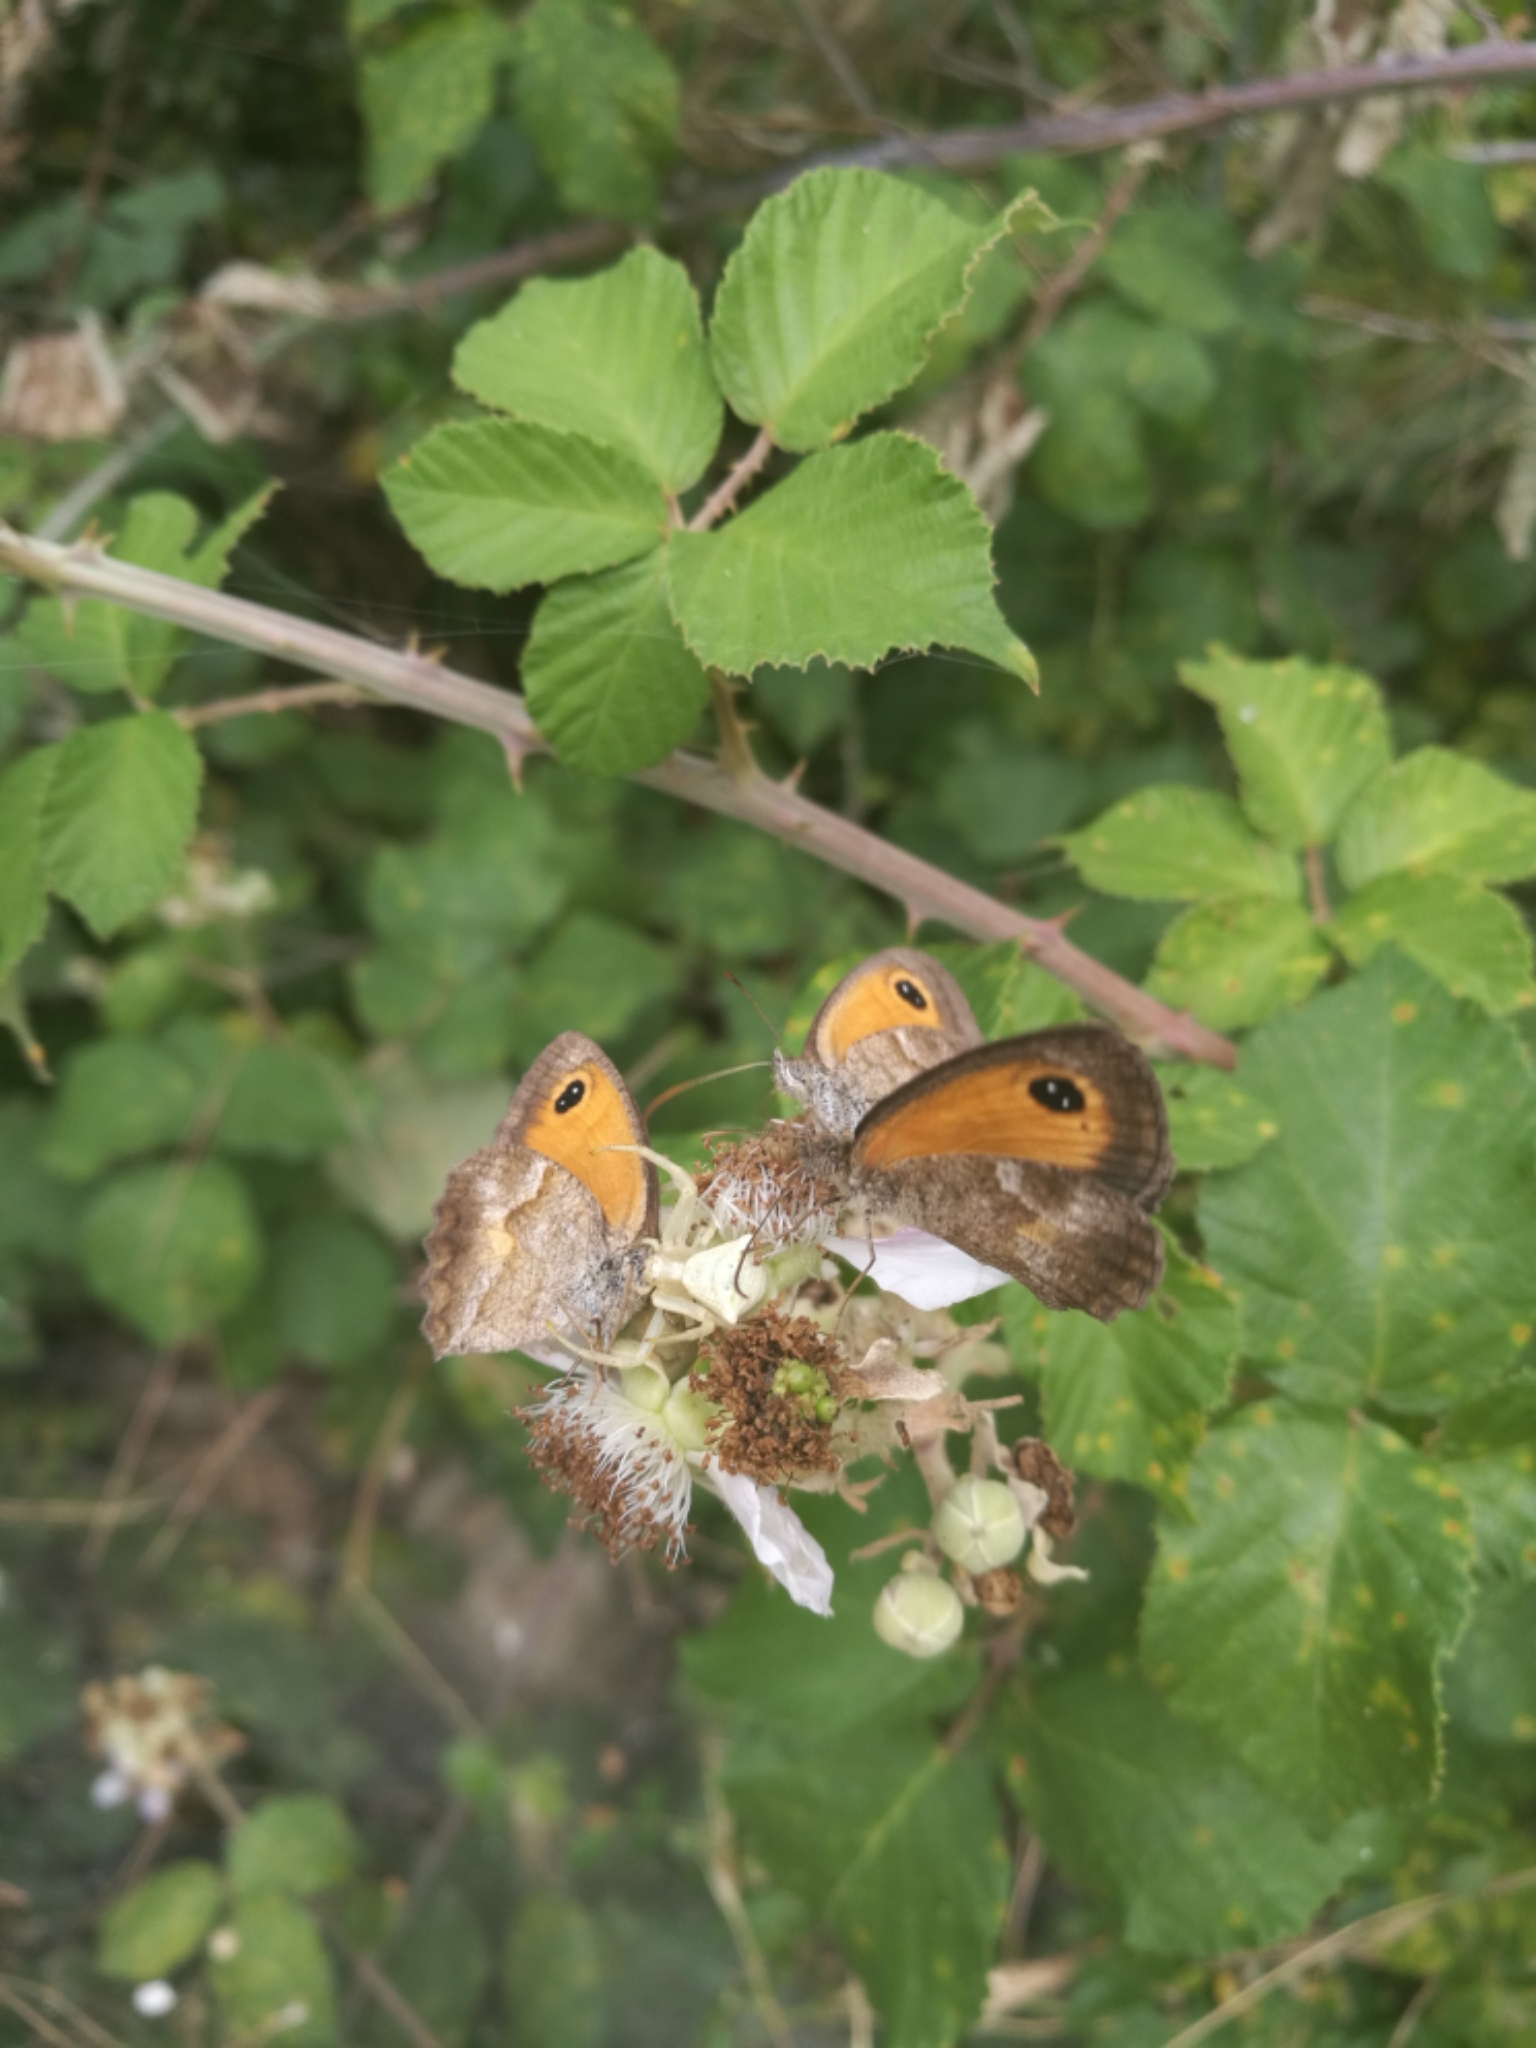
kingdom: Animalia
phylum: Arthropoda
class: Insecta
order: Lepidoptera
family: Nymphalidae
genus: Pyronia
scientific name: Pyronia cecilia
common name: Southern gatekeeper
